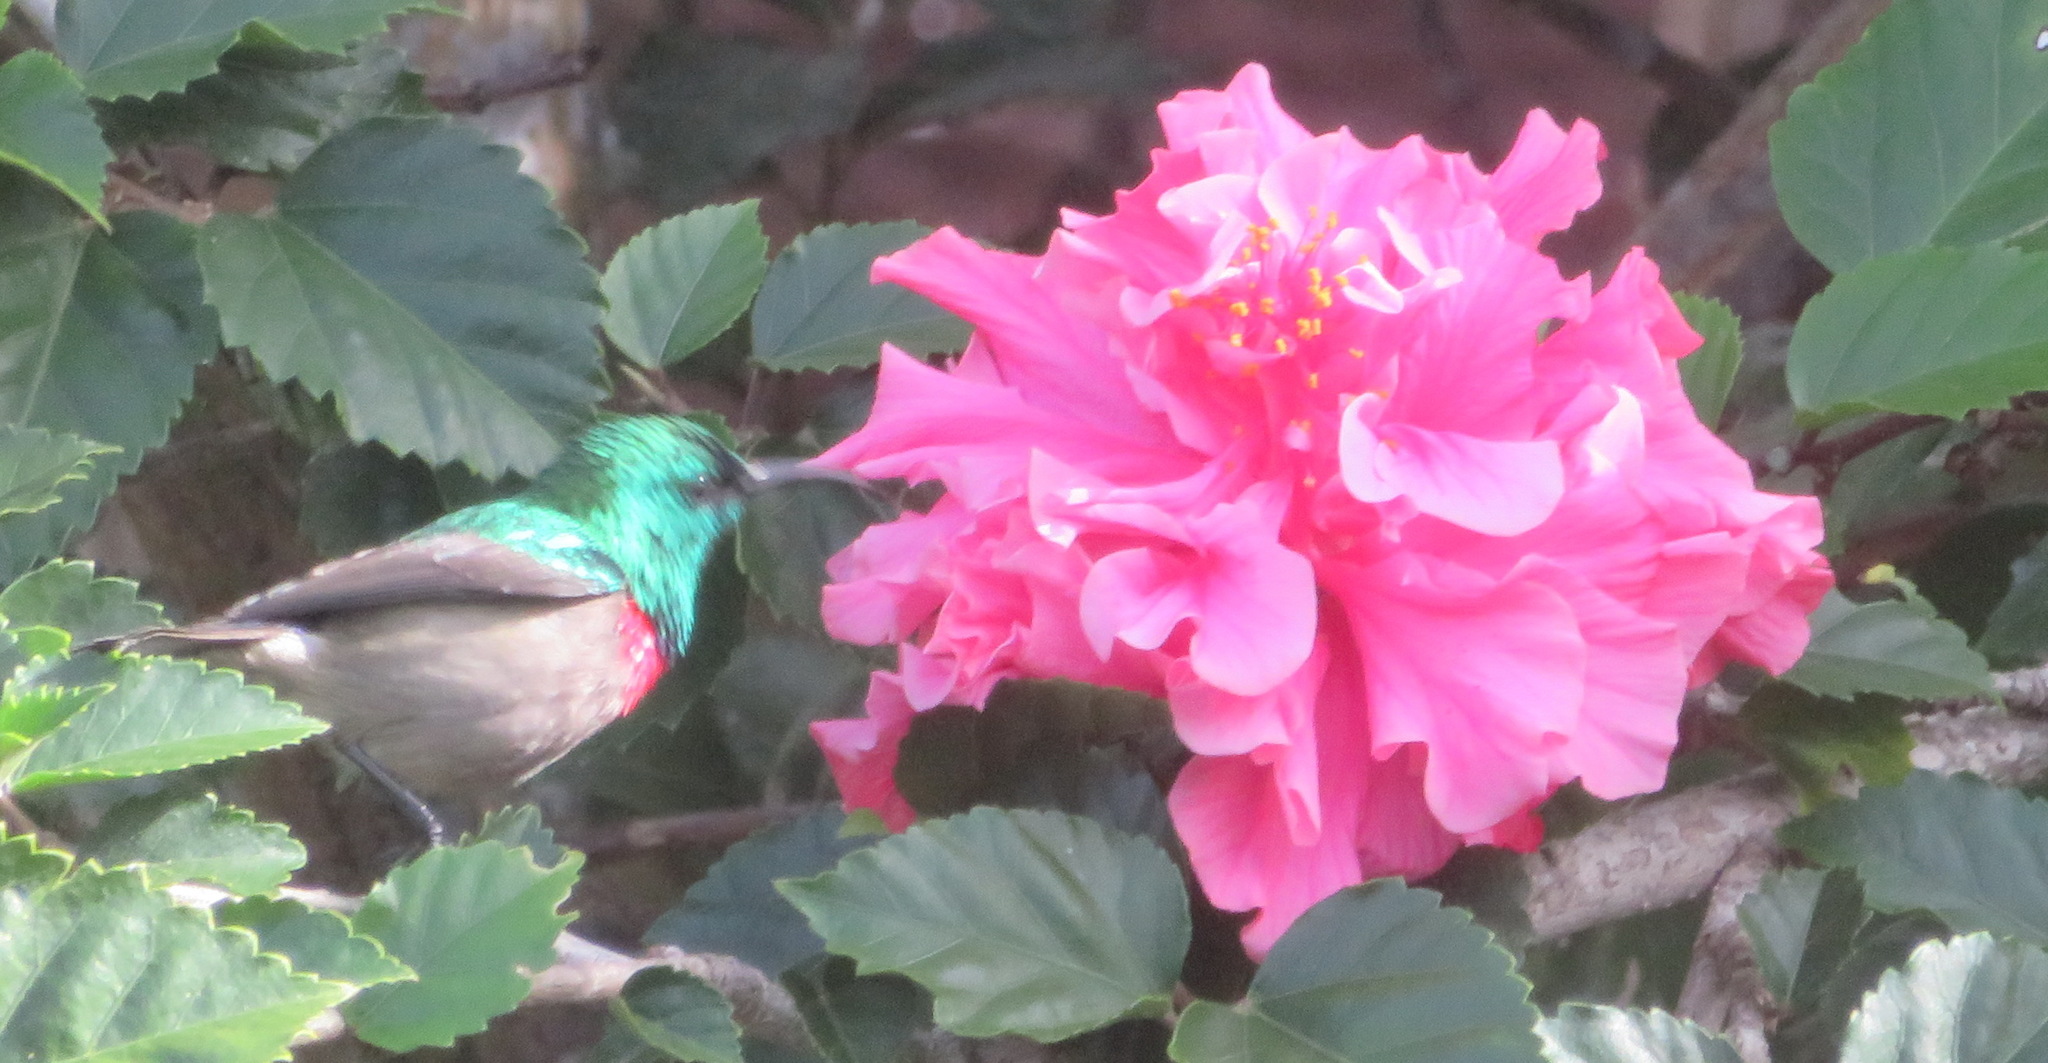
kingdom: Animalia
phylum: Chordata
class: Aves
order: Passeriformes
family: Nectariniidae
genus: Cinnyris
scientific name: Cinnyris afer
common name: Greater double-collared sunbird
